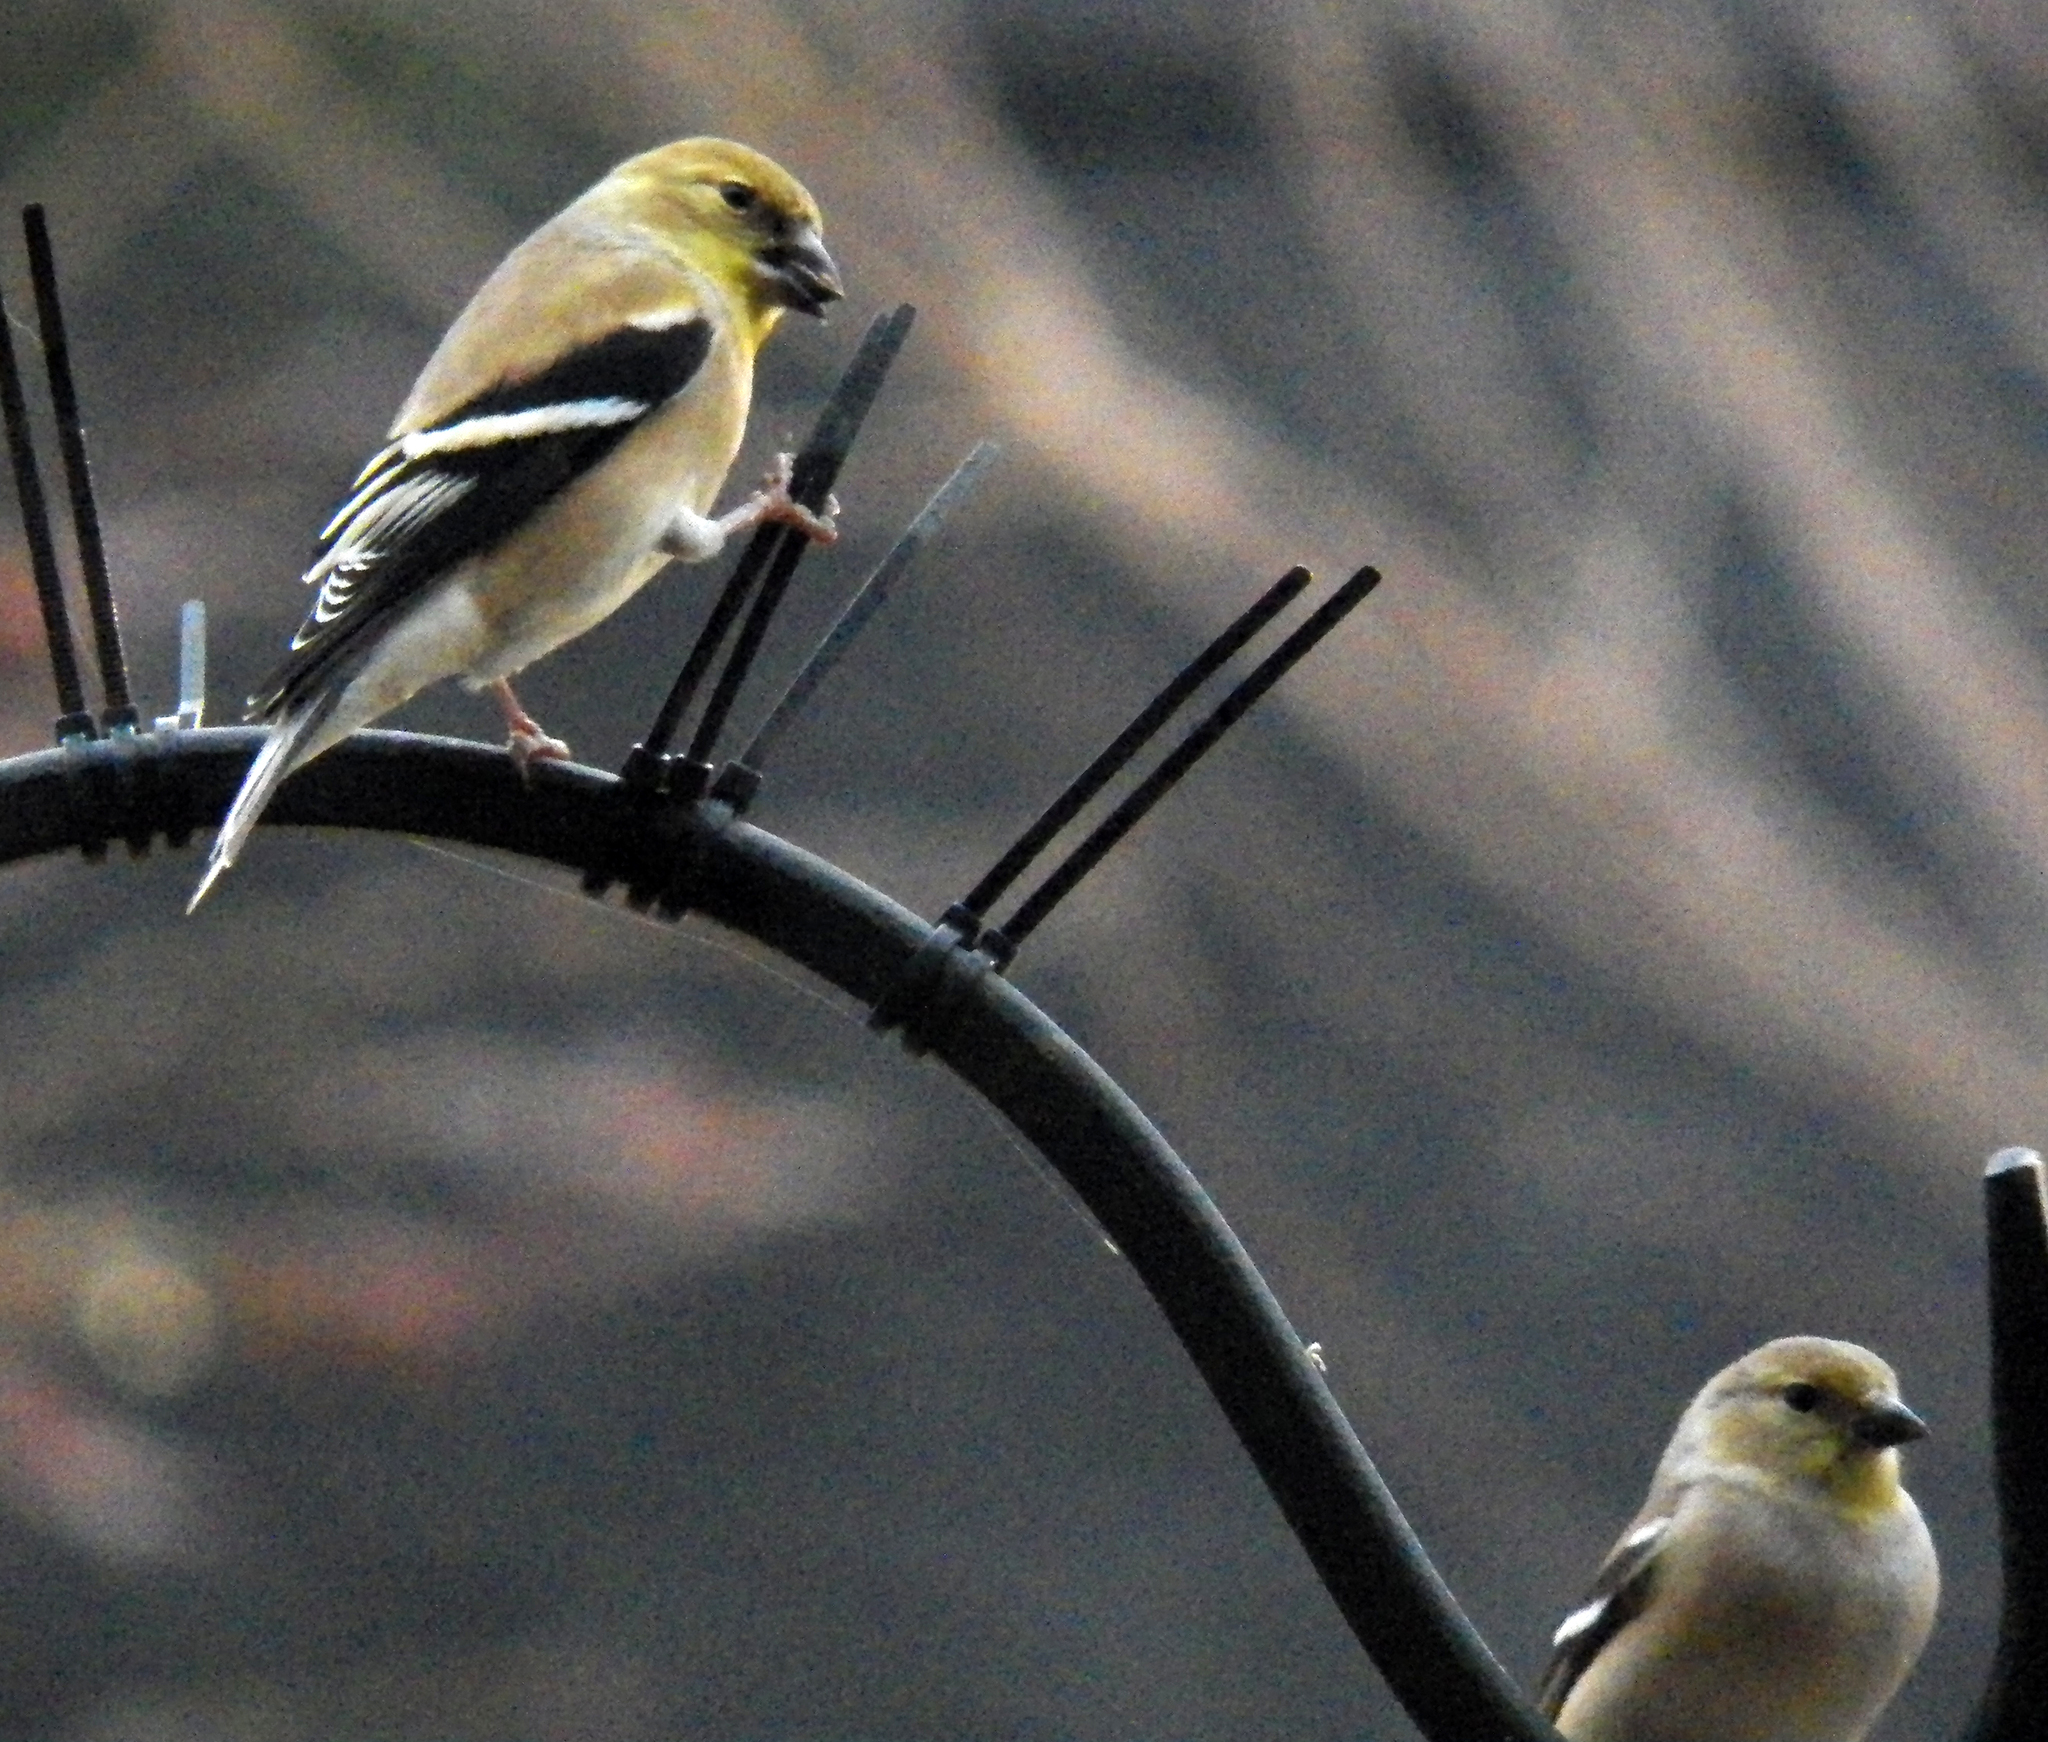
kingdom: Animalia
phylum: Chordata
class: Aves
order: Passeriformes
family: Fringillidae
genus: Spinus
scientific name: Spinus tristis
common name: American goldfinch
